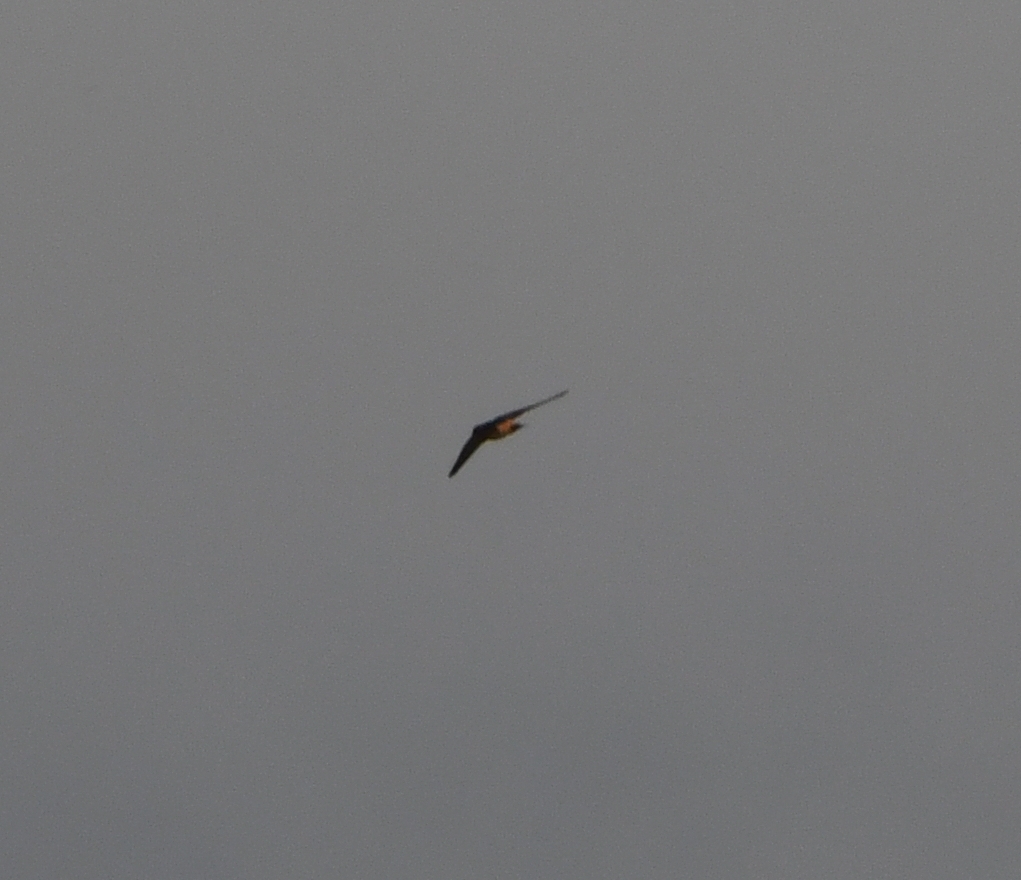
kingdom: Animalia
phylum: Chordata
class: Aves
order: Passeriformes
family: Hirundinidae
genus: Petrochelidon
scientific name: Petrochelidon pyrrhonota
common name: American cliff swallow
